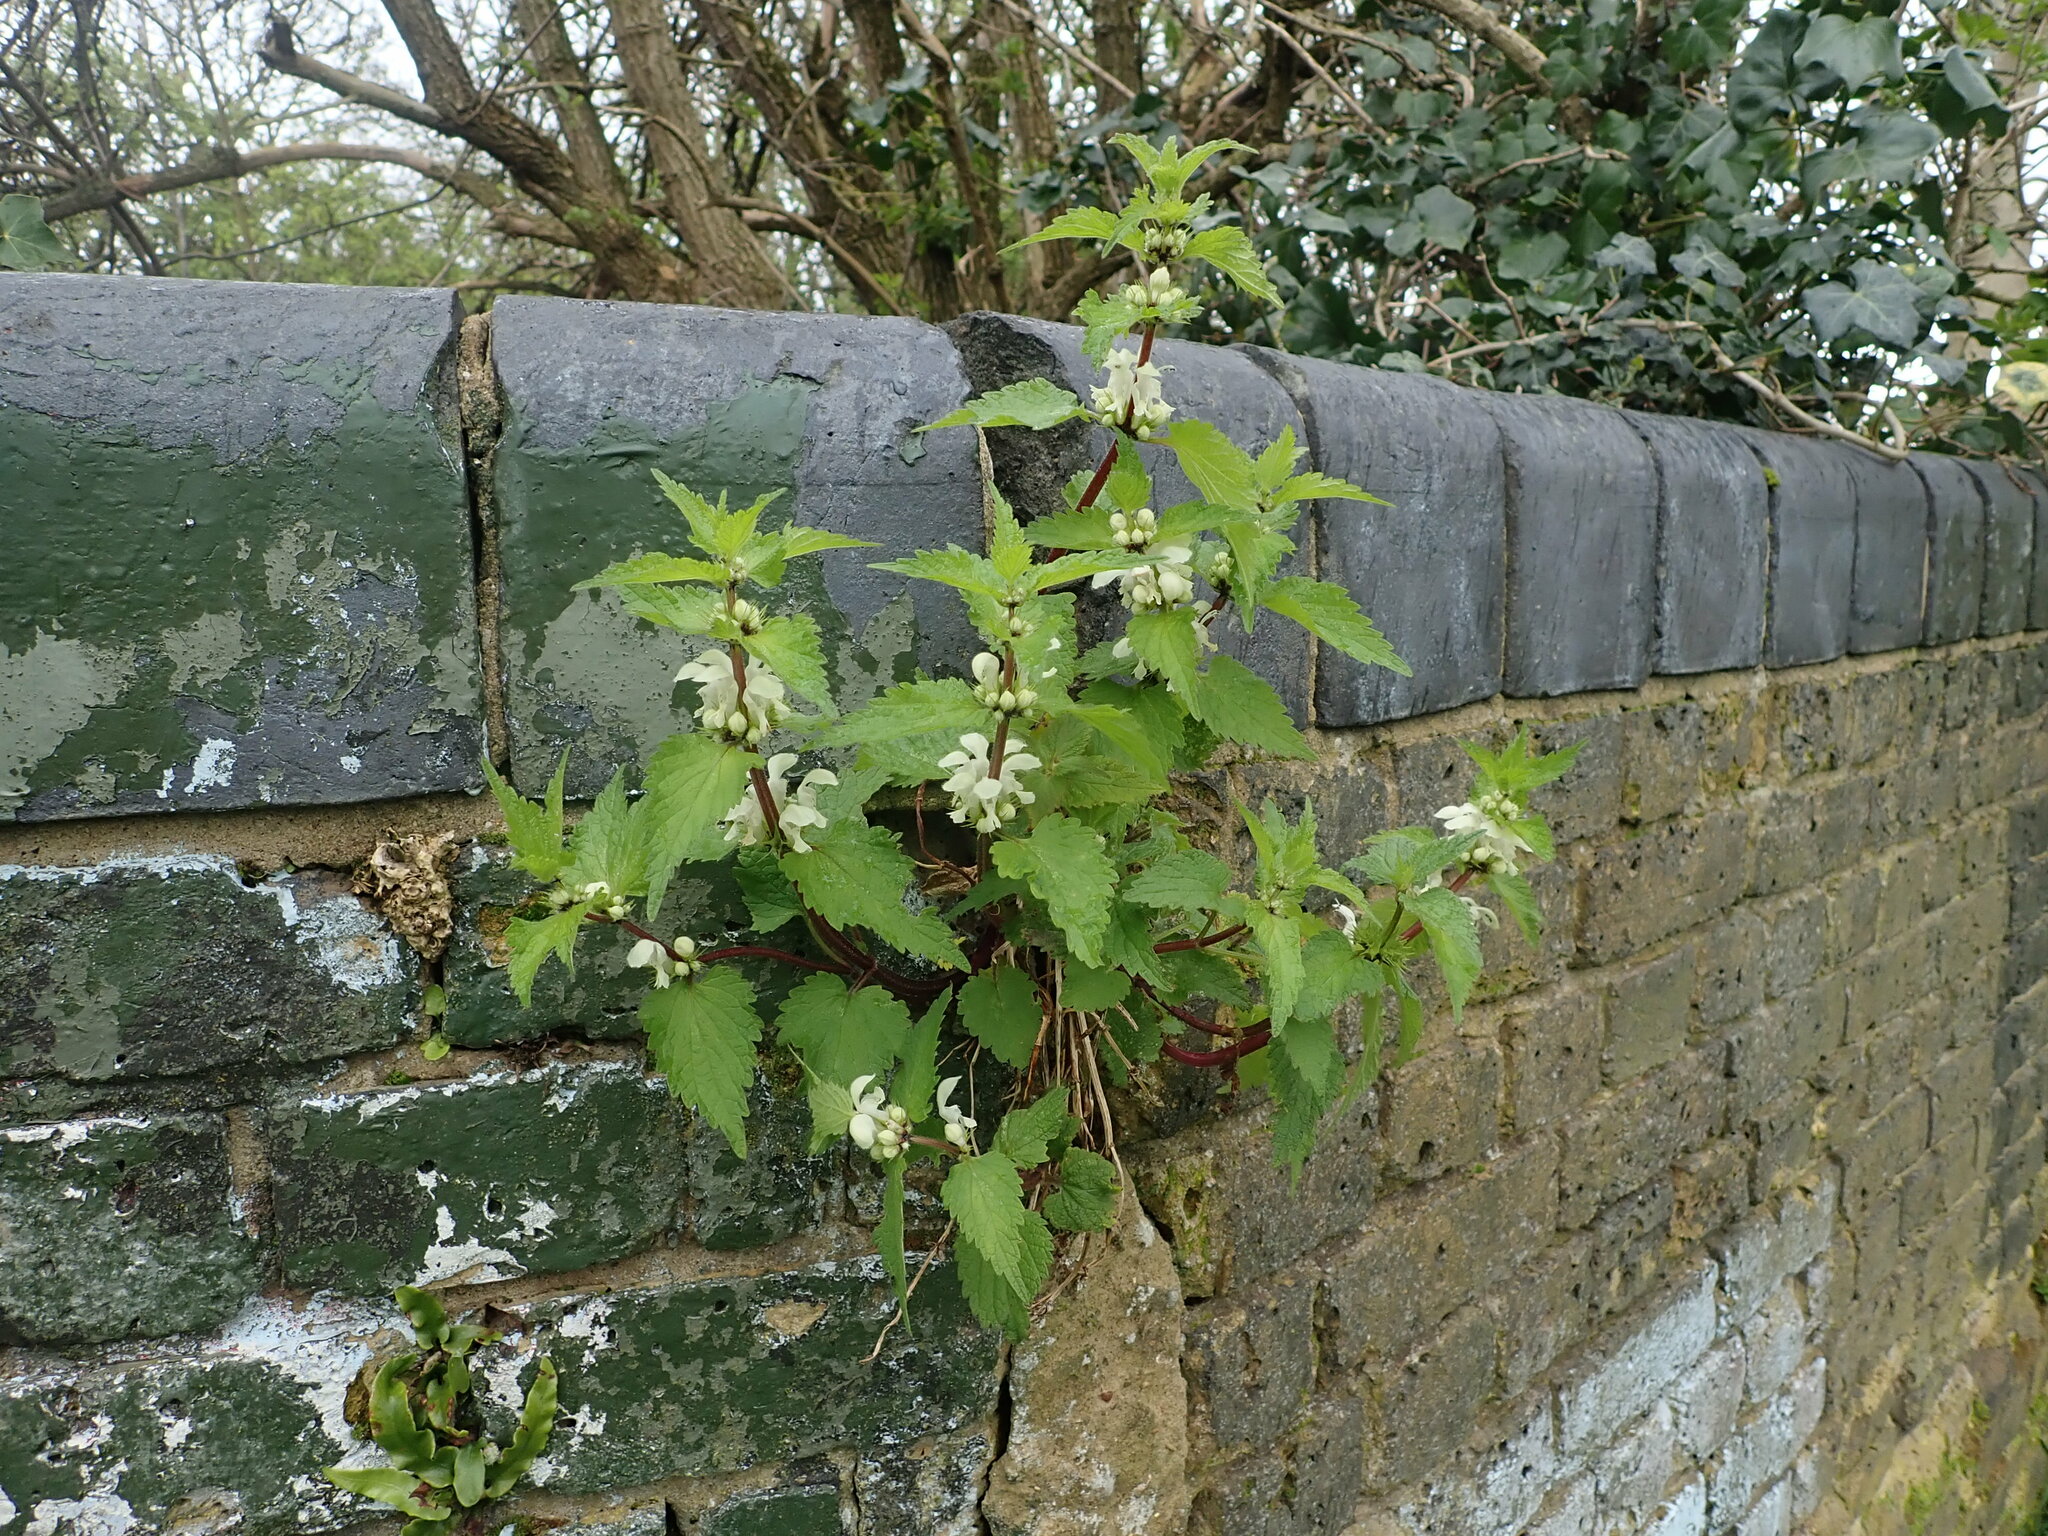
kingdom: Plantae
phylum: Tracheophyta
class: Magnoliopsida
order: Lamiales
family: Lamiaceae
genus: Lamium
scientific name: Lamium album
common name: White dead-nettle
